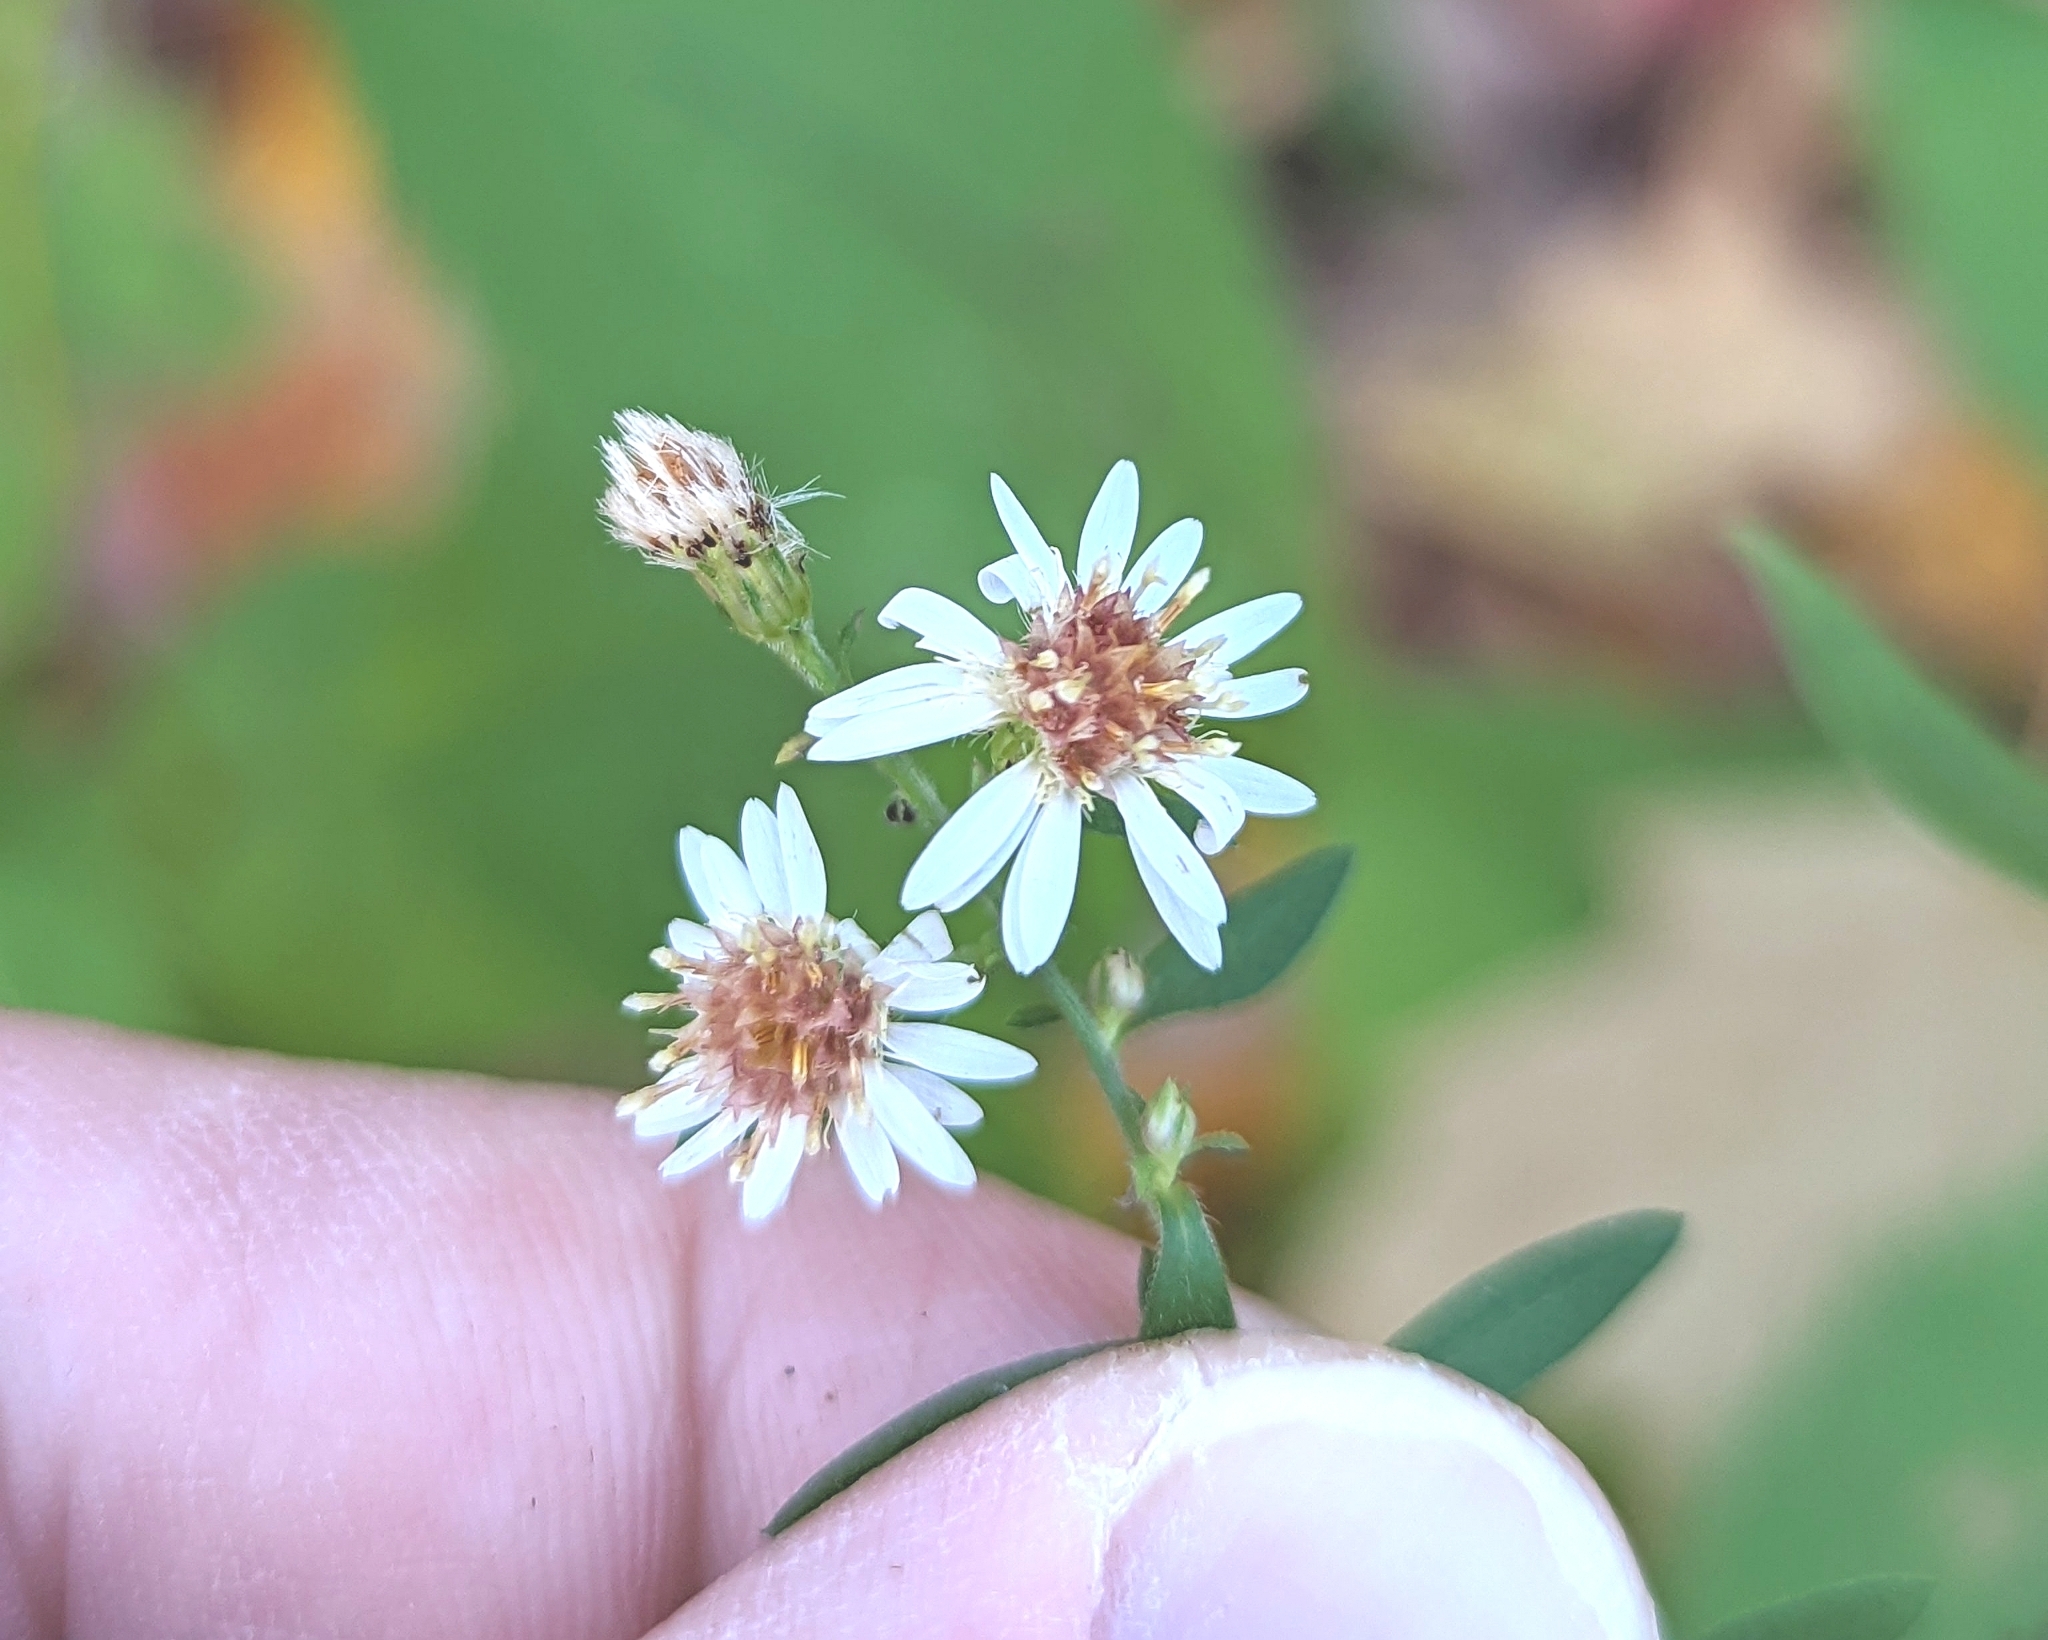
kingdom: Plantae
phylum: Tracheophyta
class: Magnoliopsida
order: Asterales
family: Asteraceae
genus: Symphyotrichum
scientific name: Symphyotrichum ontarionis
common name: Bottomland aster
